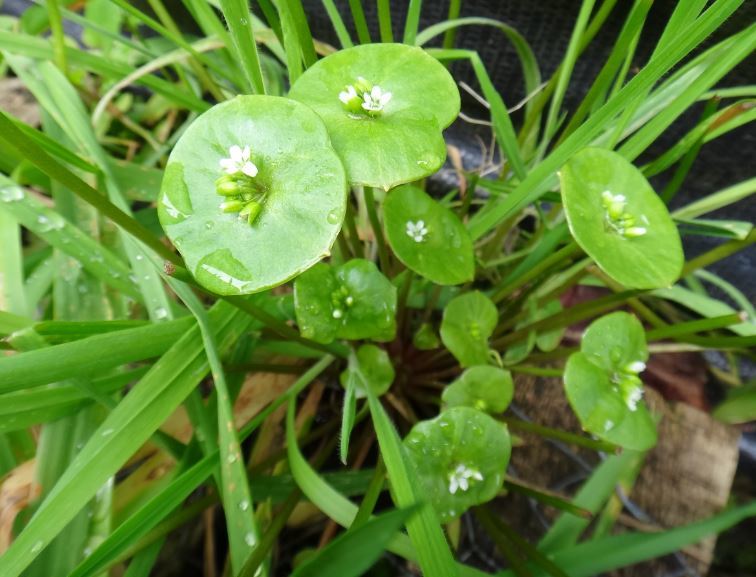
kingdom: Plantae
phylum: Tracheophyta
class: Magnoliopsida
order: Caryophyllales
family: Montiaceae
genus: Claytonia
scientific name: Claytonia perfoliata
